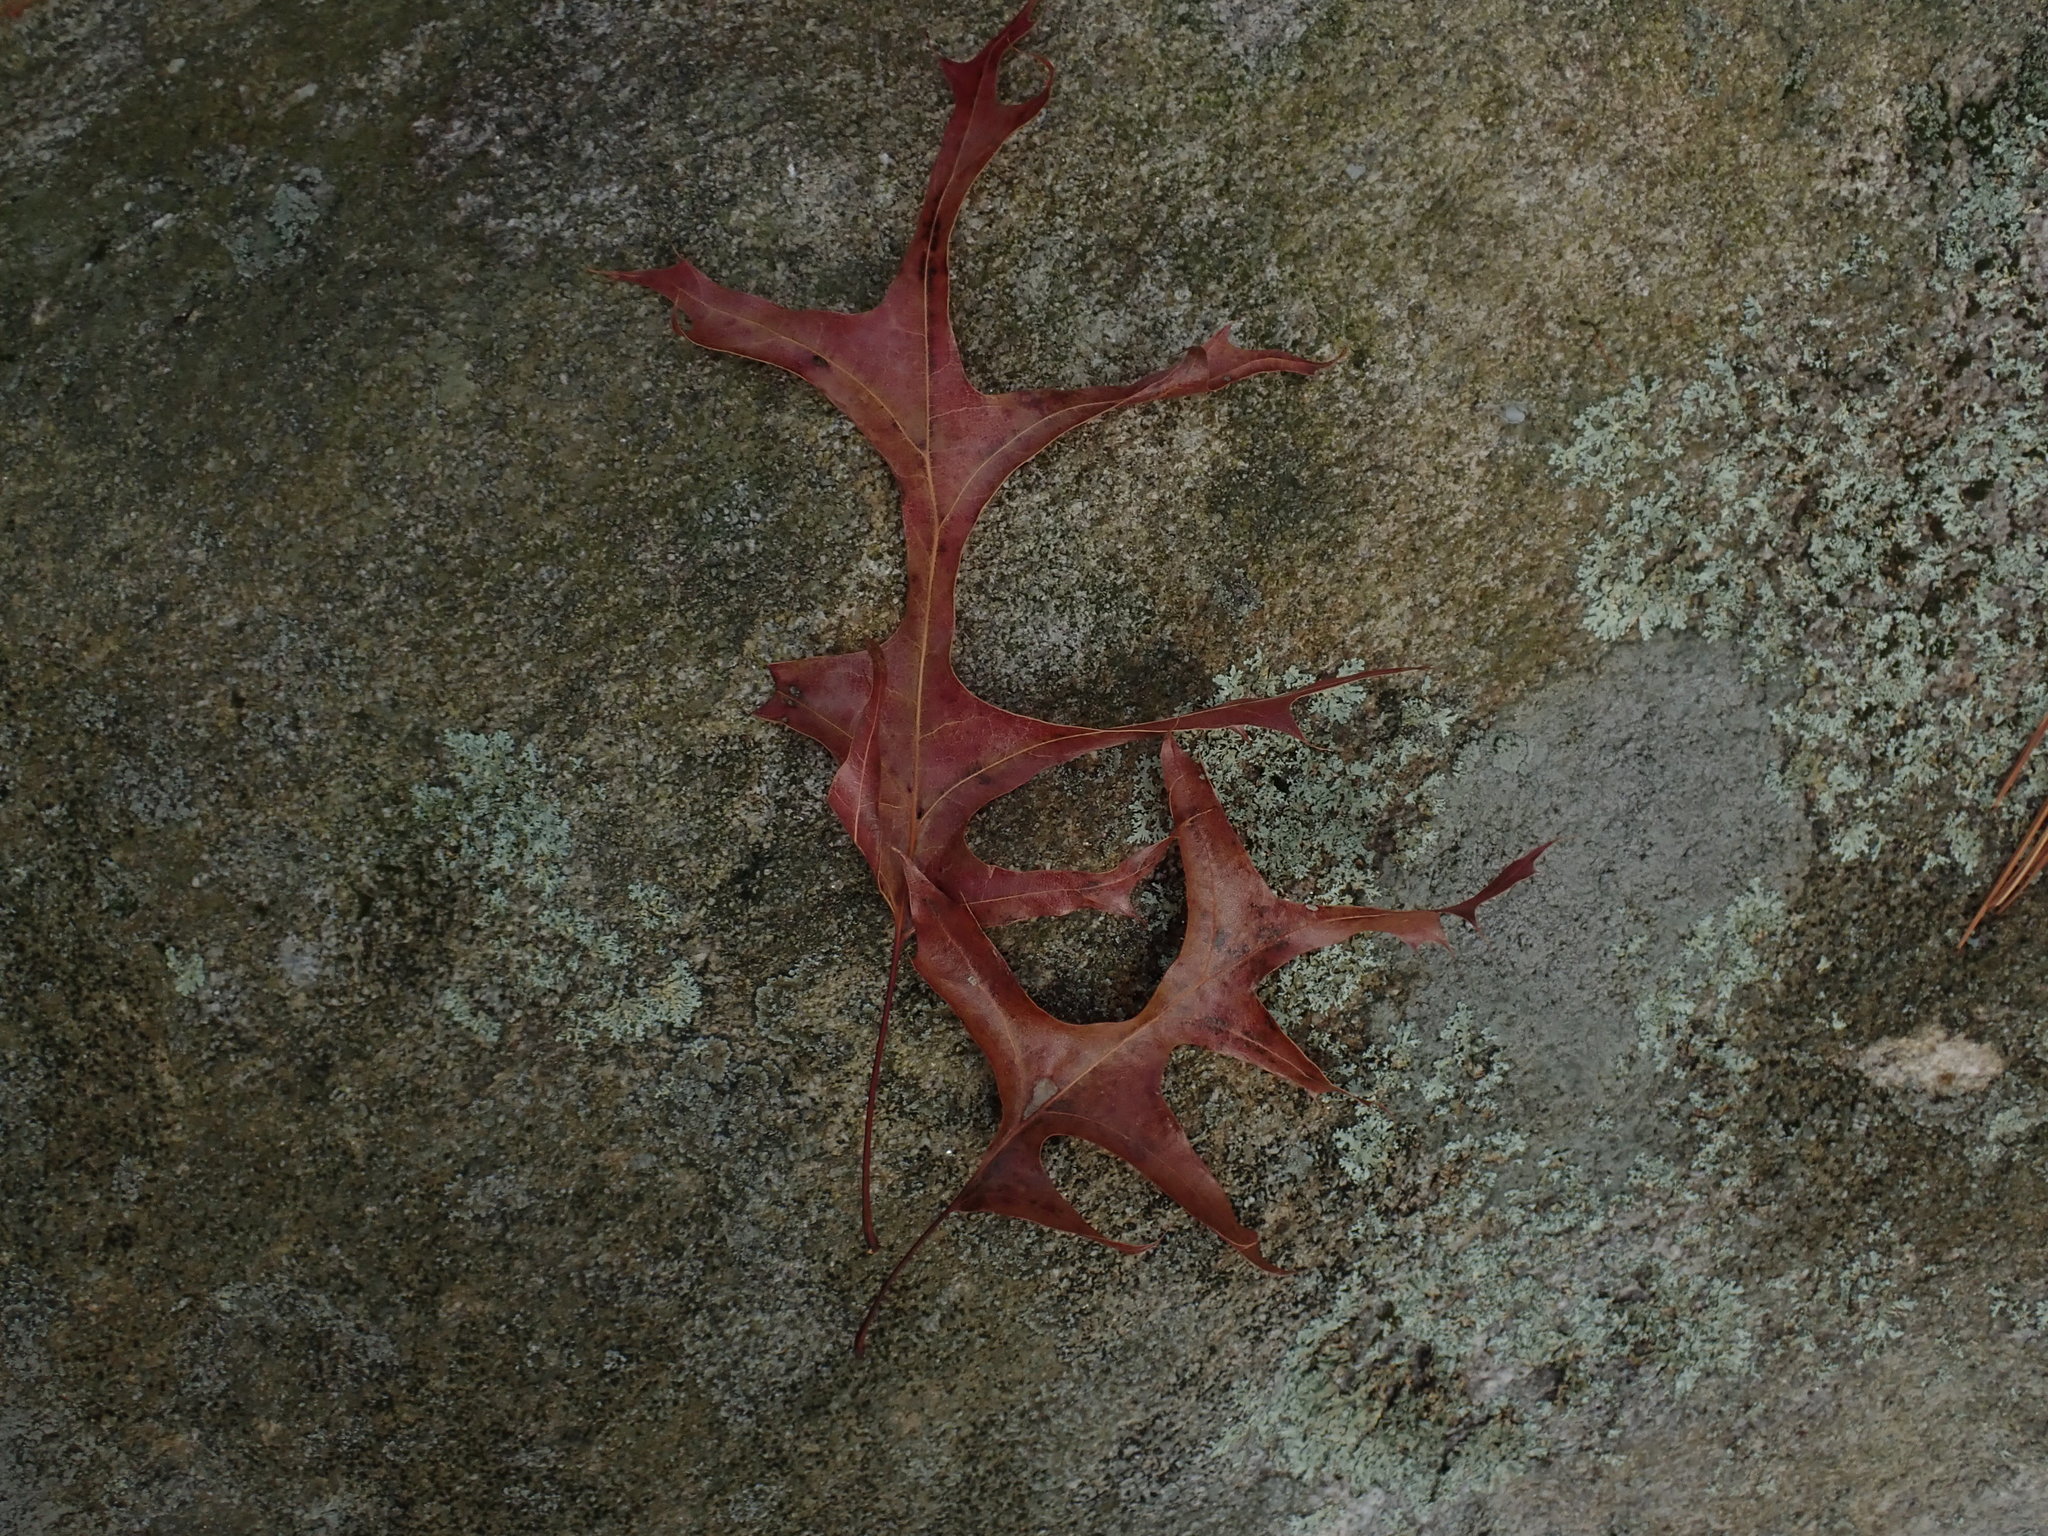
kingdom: Plantae
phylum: Tracheophyta
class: Magnoliopsida
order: Fagales
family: Fagaceae
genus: Quercus
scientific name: Quercus coccinea
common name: Scarlet oak
